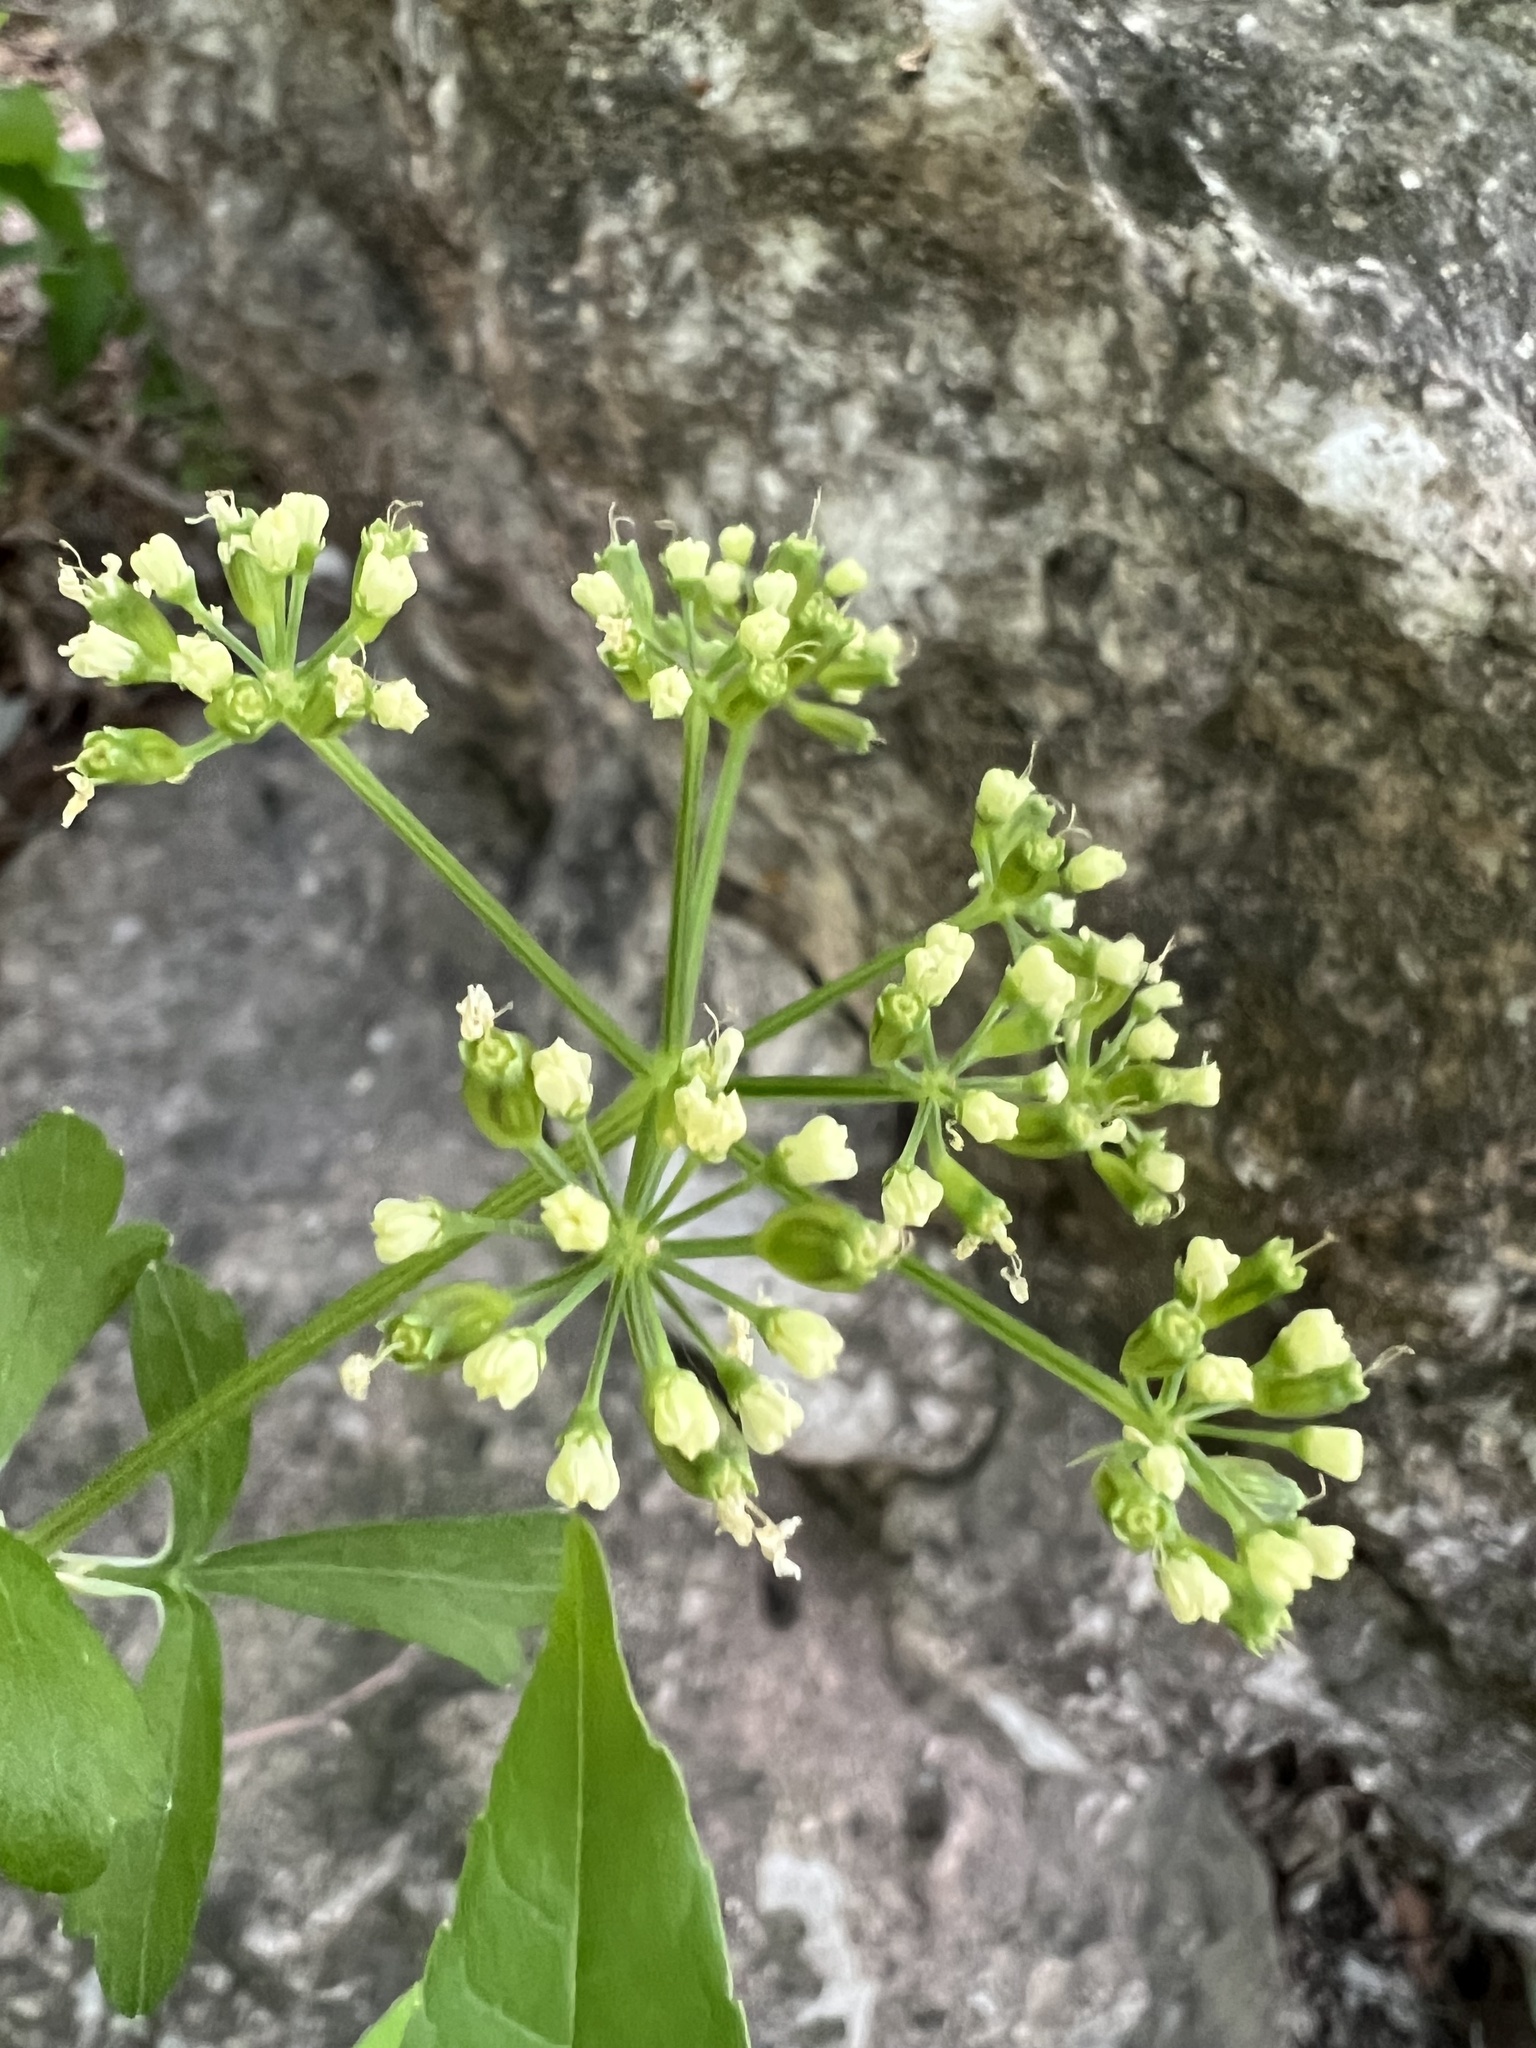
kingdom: Plantae
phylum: Tracheophyta
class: Magnoliopsida
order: Apiales
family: Apiaceae
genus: Polytaenia
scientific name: Polytaenia albiflora
